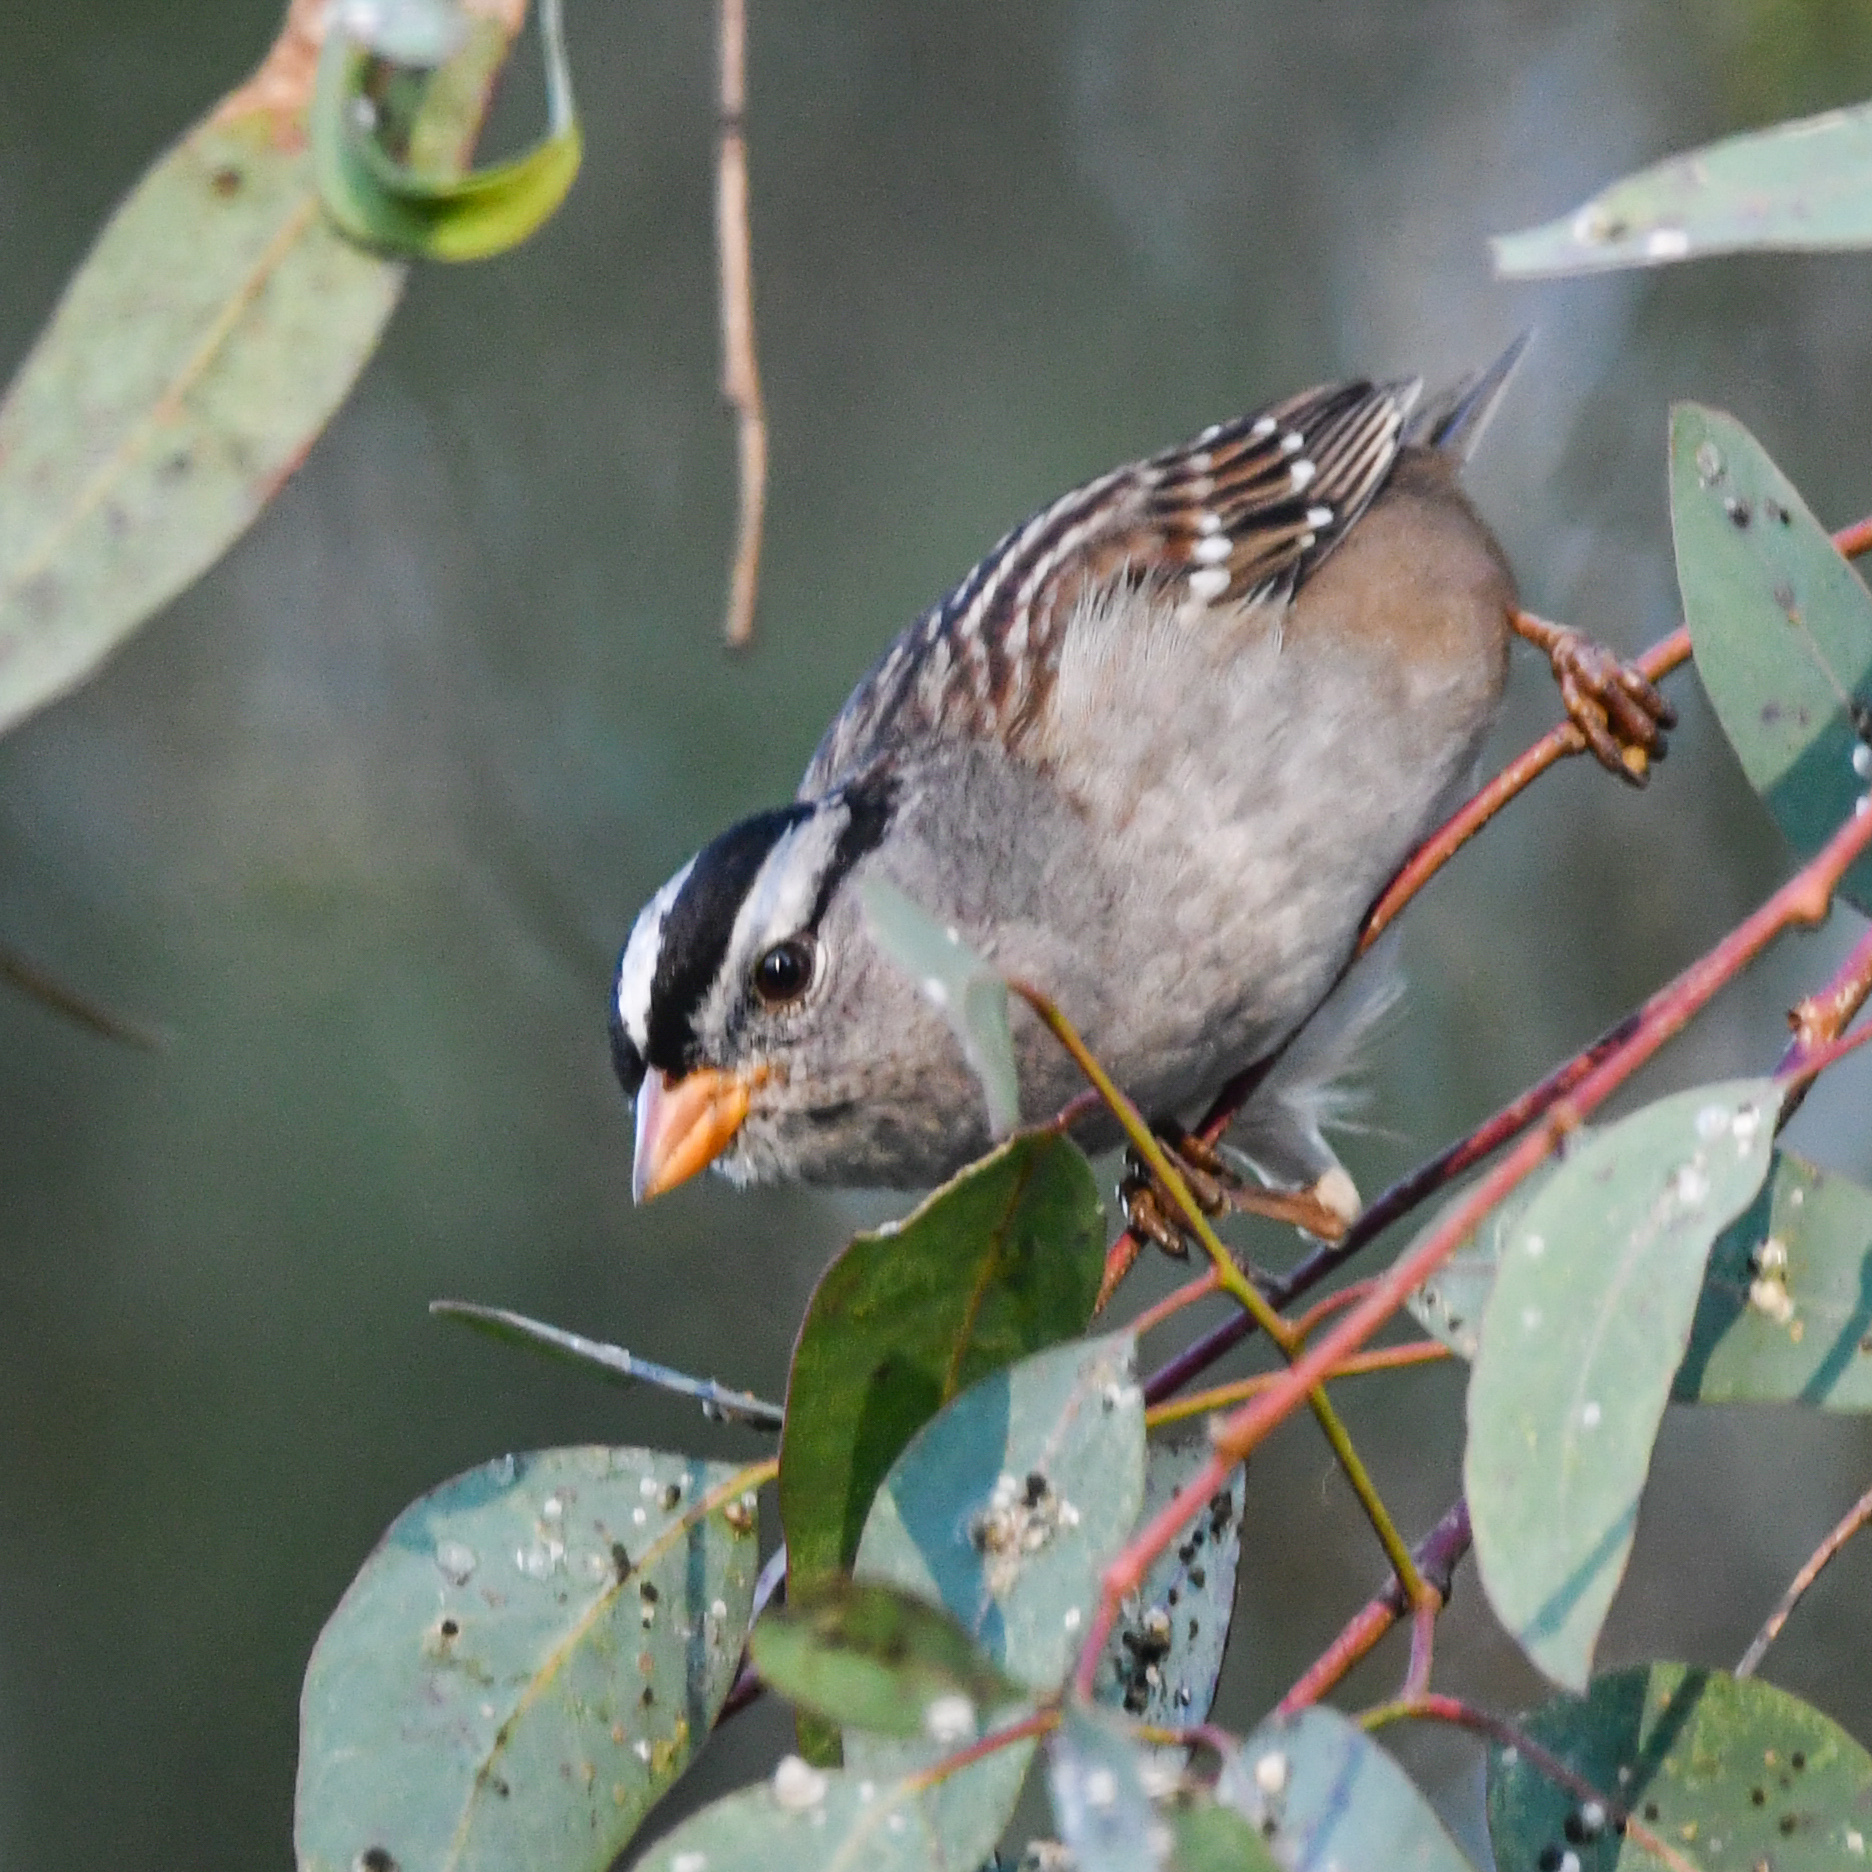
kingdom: Animalia
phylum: Chordata
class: Aves
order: Passeriformes
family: Passerellidae
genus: Zonotrichia
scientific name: Zonotrichia leucophrys
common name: White-crowned sparrow
